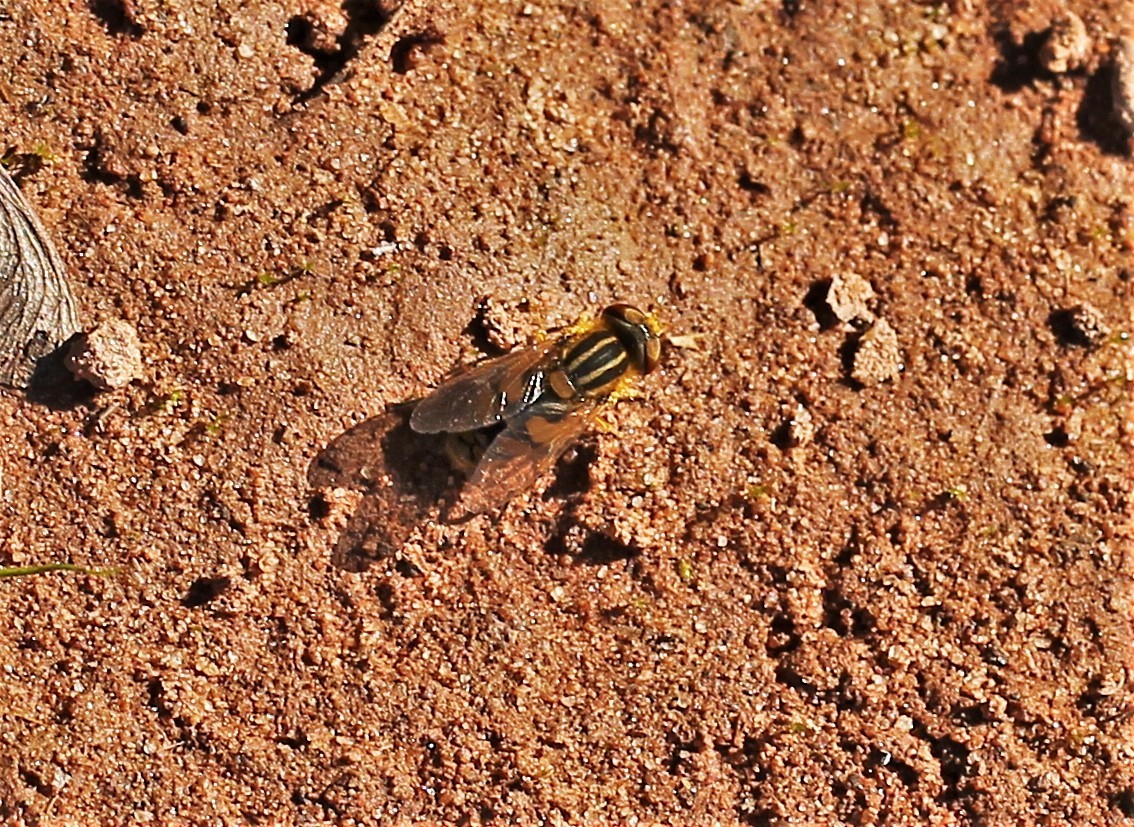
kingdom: Animalia
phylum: Arthropoda
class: Insecta
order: Diptera
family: Syrphidae
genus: Parhelophilus
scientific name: Parhelophilus laetus
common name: Common bog fly
